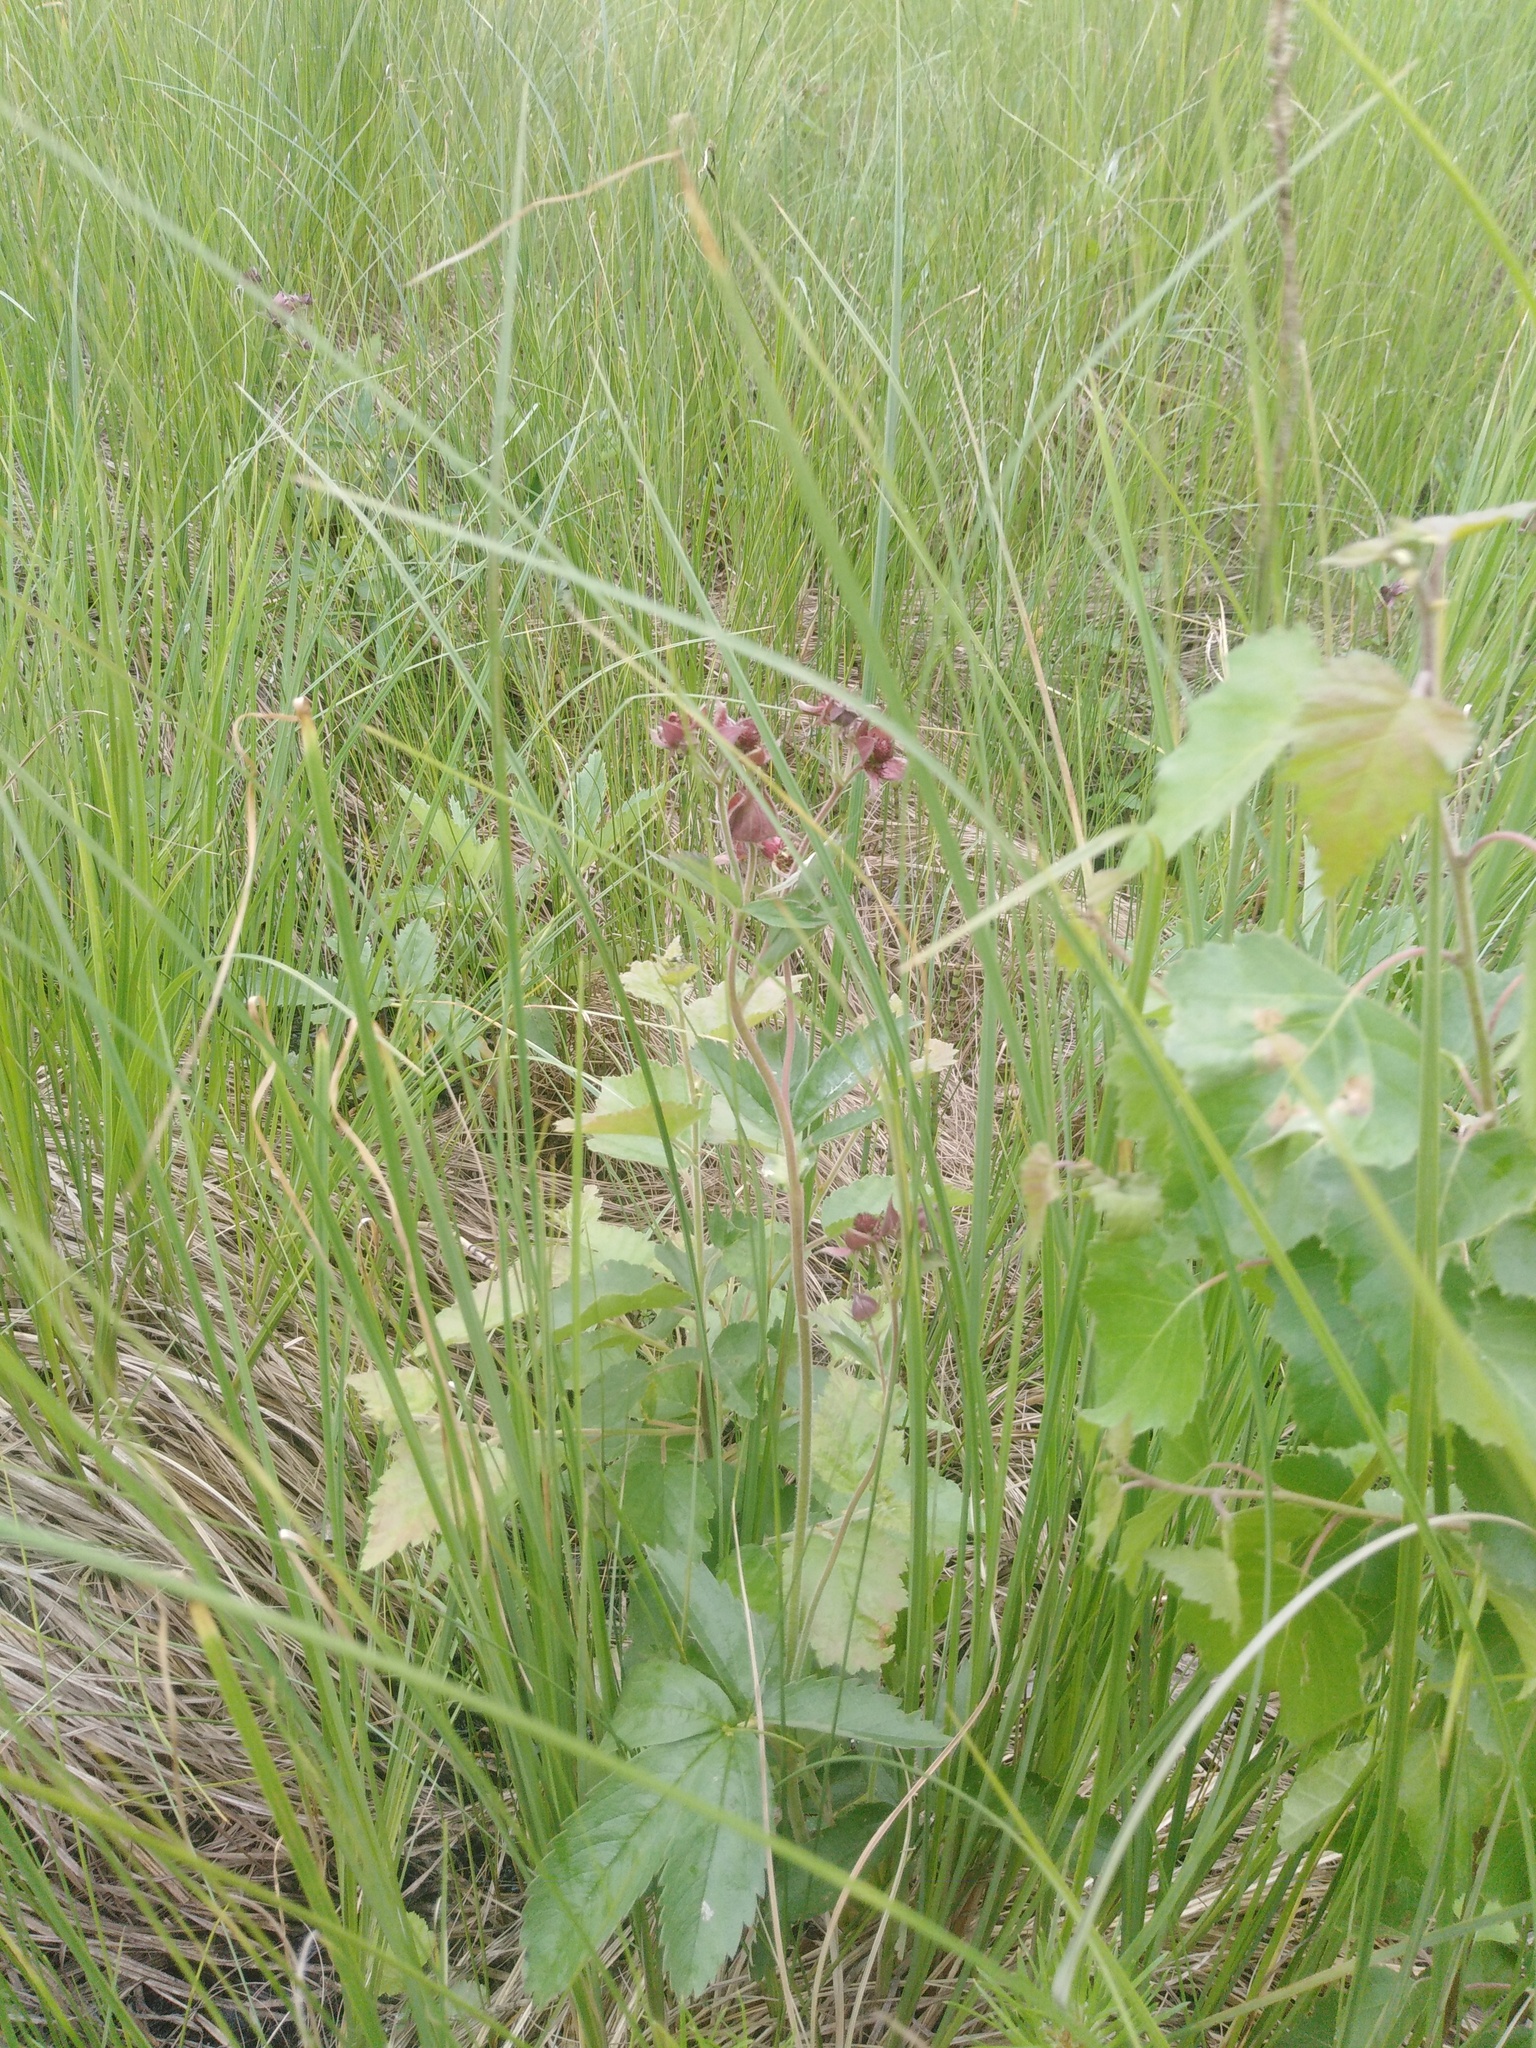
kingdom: Plantae
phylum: Tracheophyta
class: Magnoliopsida
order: Rosales
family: Rosaceae
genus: Comarum
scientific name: Comarum palustre
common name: Marsh cinquefoil
